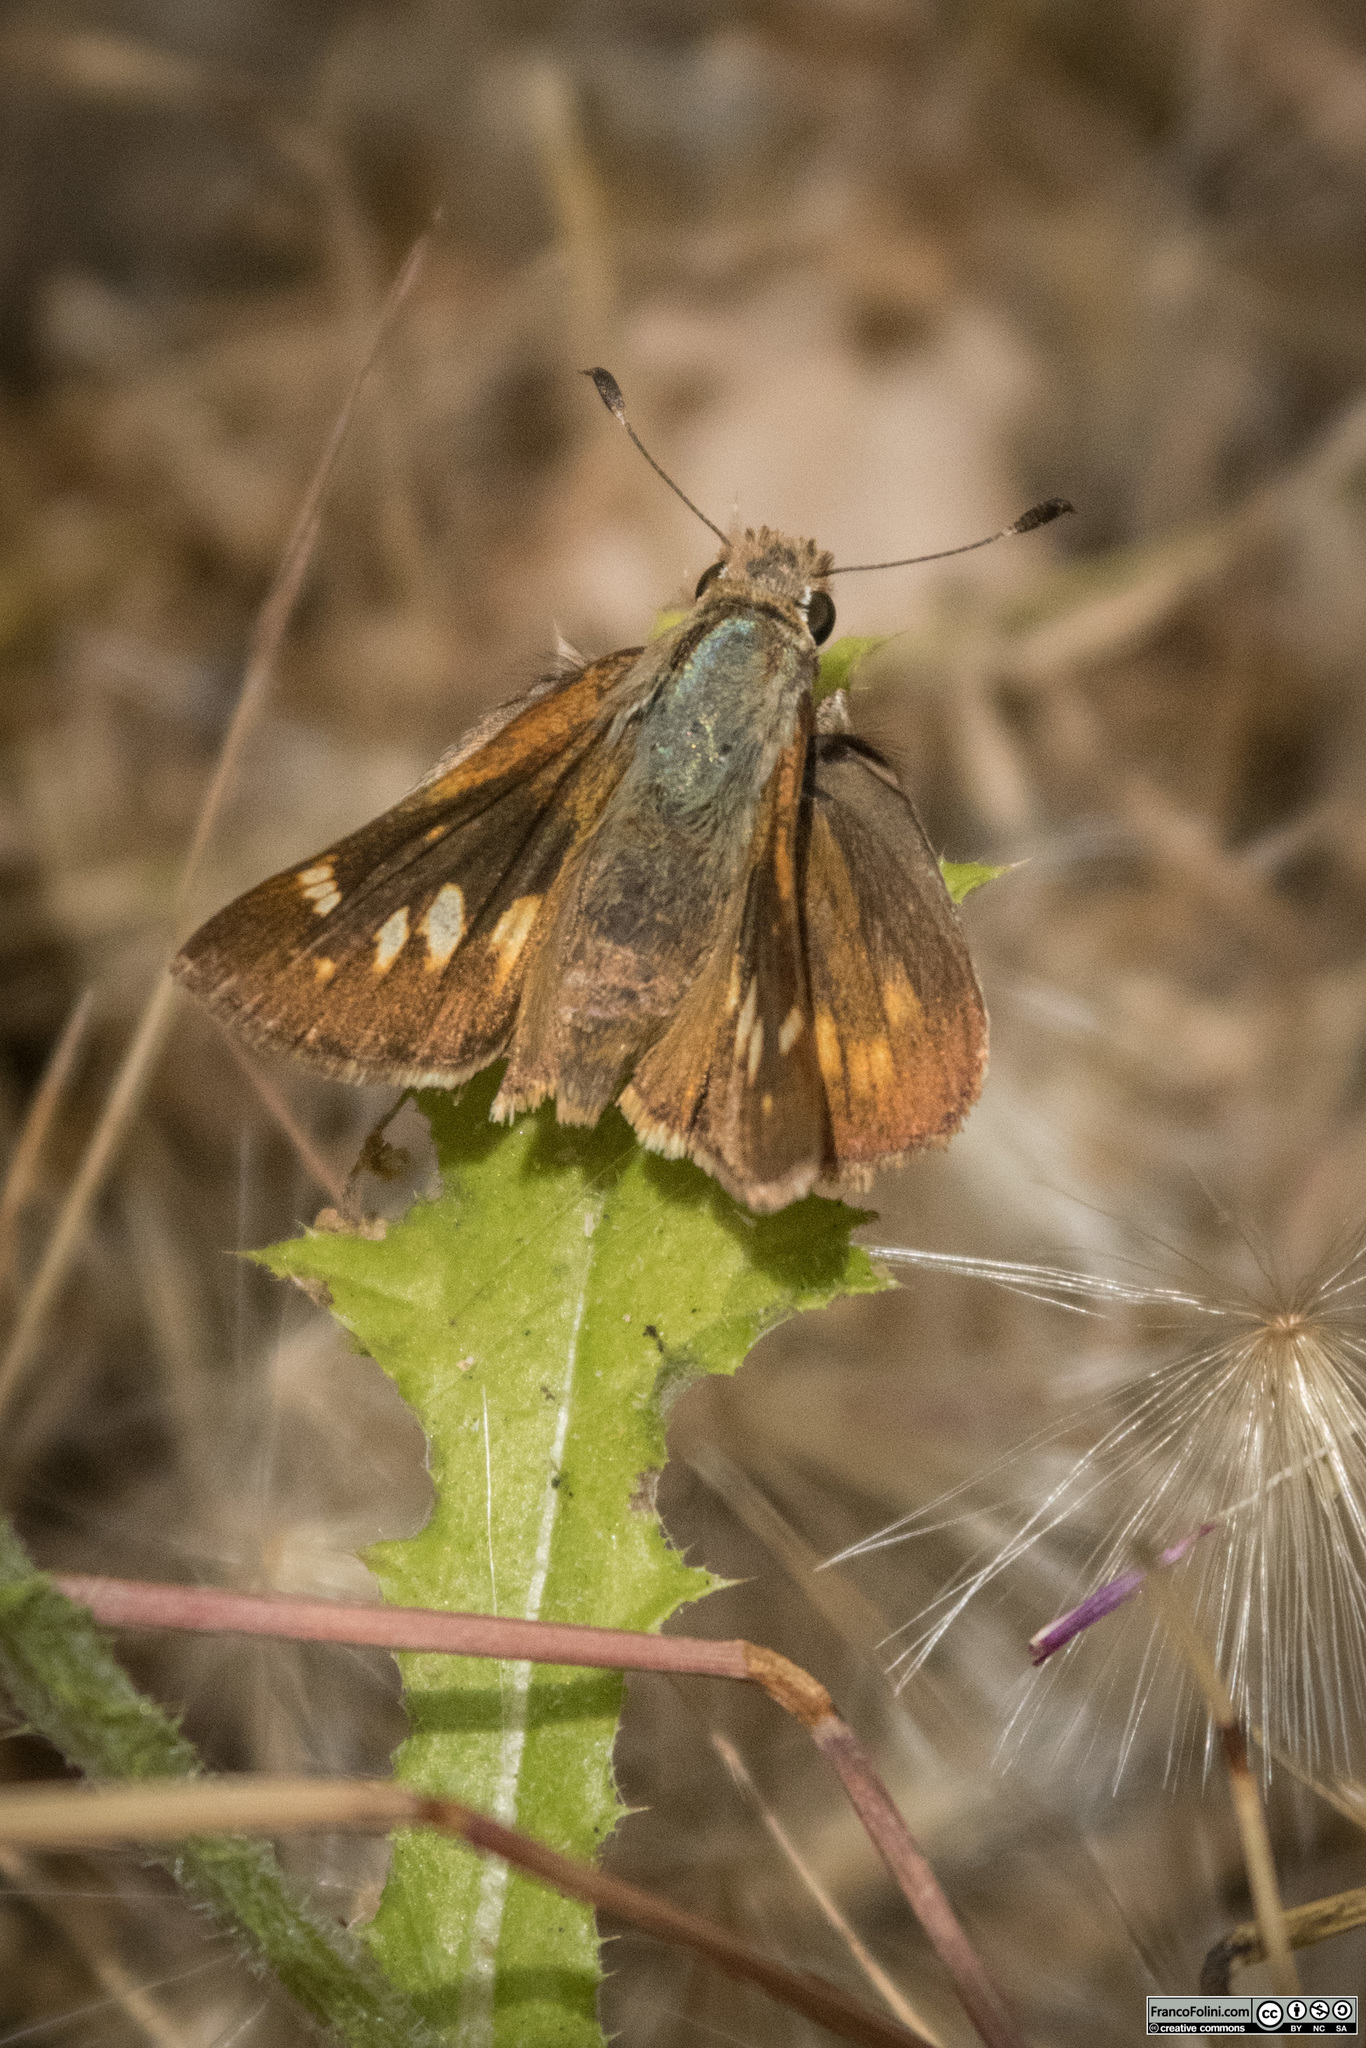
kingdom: Animalia
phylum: Arthropoda
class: Insecta
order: Lepidoptera
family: Hesperiidae
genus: Lon
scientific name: Lon melane
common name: Umber skipper
